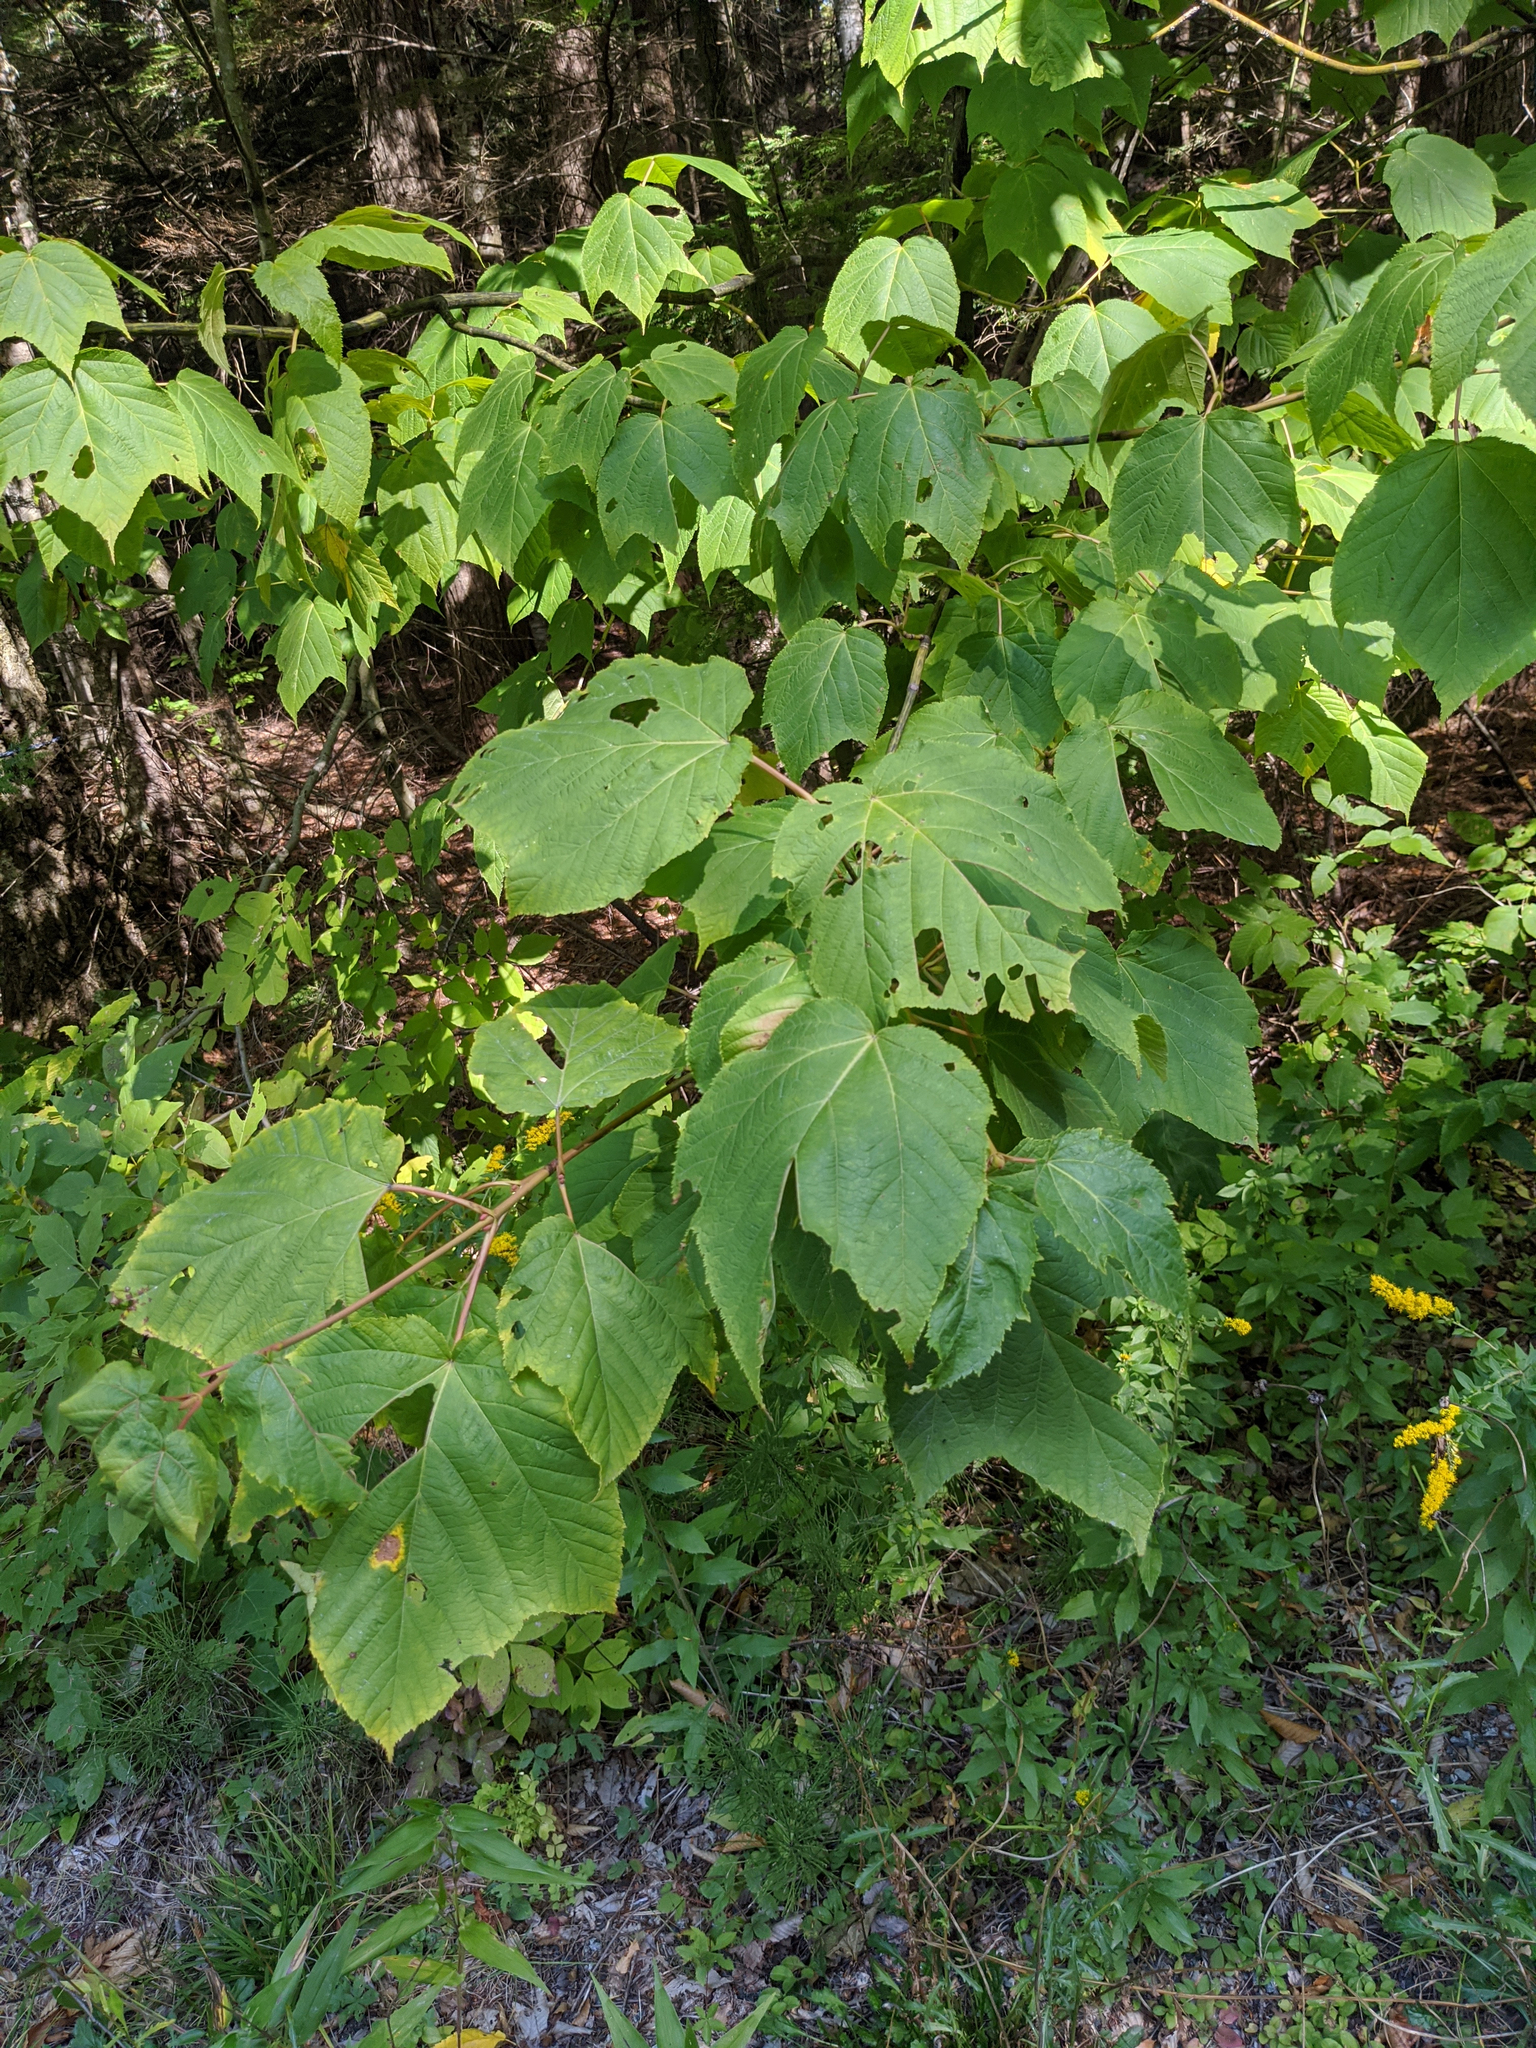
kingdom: Plantae
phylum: Tracheophyta
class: Magnoliopsida
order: Sapindales
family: Sapindaceae
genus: Acer
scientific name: Acer pensylvanicum
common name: Moosewood
